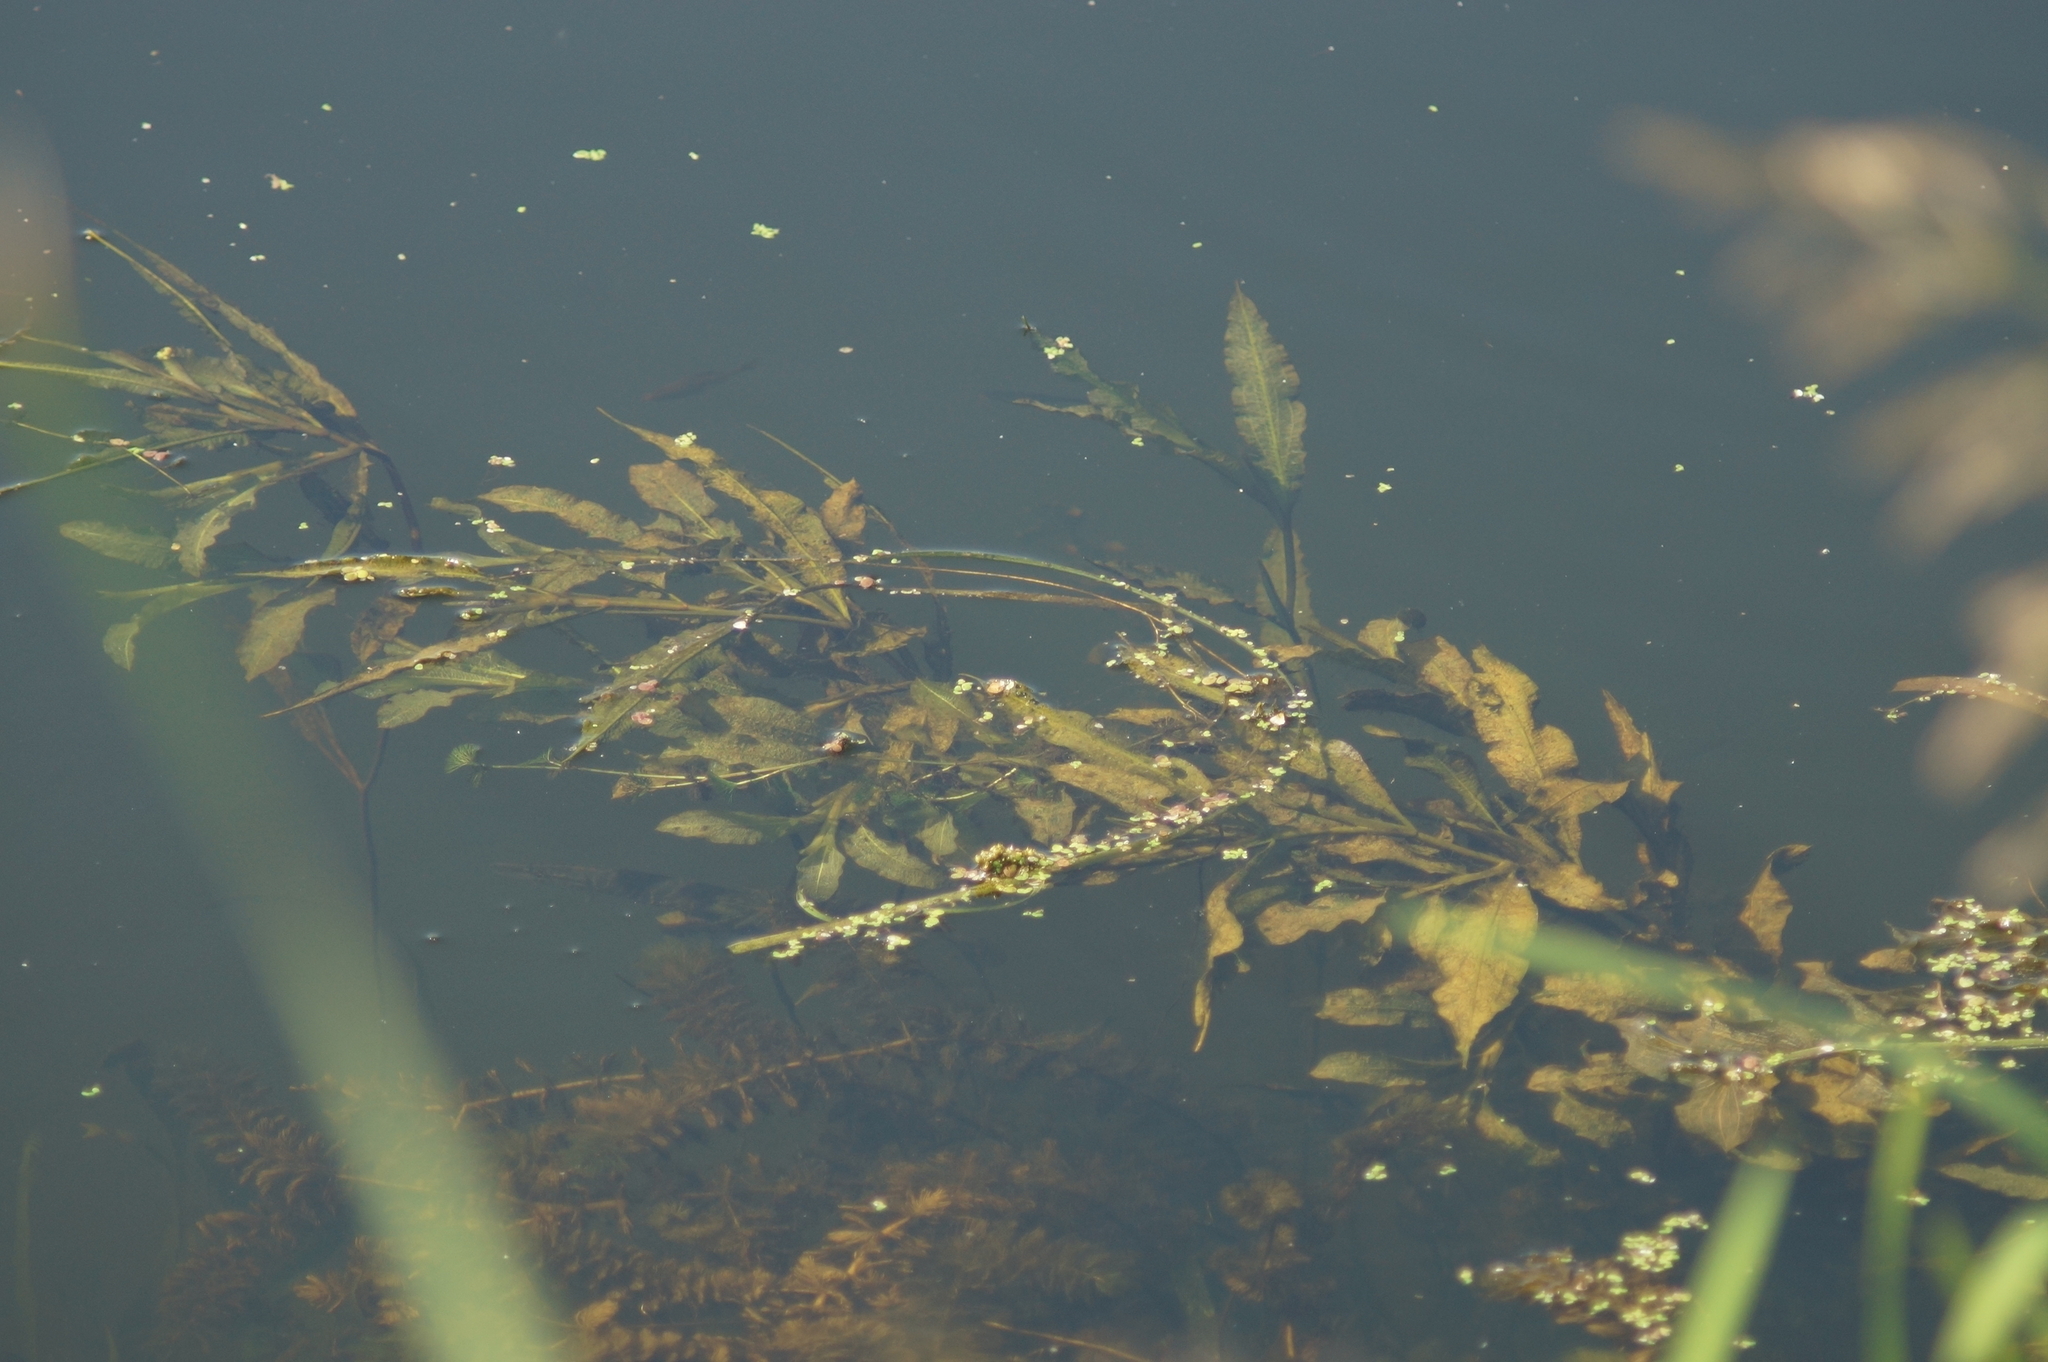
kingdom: Plantae
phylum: Tracheophyta
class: Liliopsida
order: Alismatales
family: Potamogetonaceae
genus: Potamogeton
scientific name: Potamogeton lucens
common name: Shining pondweed
